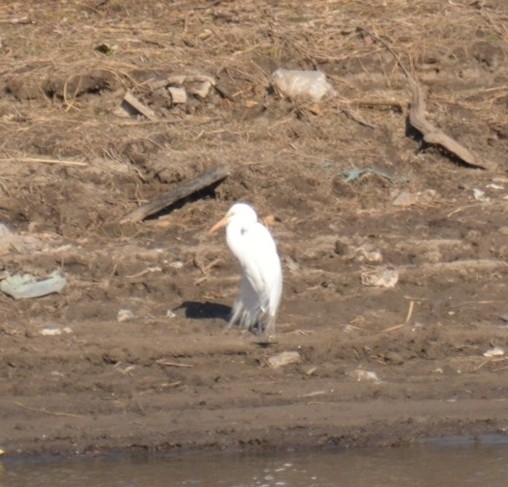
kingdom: Animalia
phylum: Chordata
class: Aves
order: Pelecaniformes
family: Ardeidae
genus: Ardea
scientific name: Ardea alba
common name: Great egret
